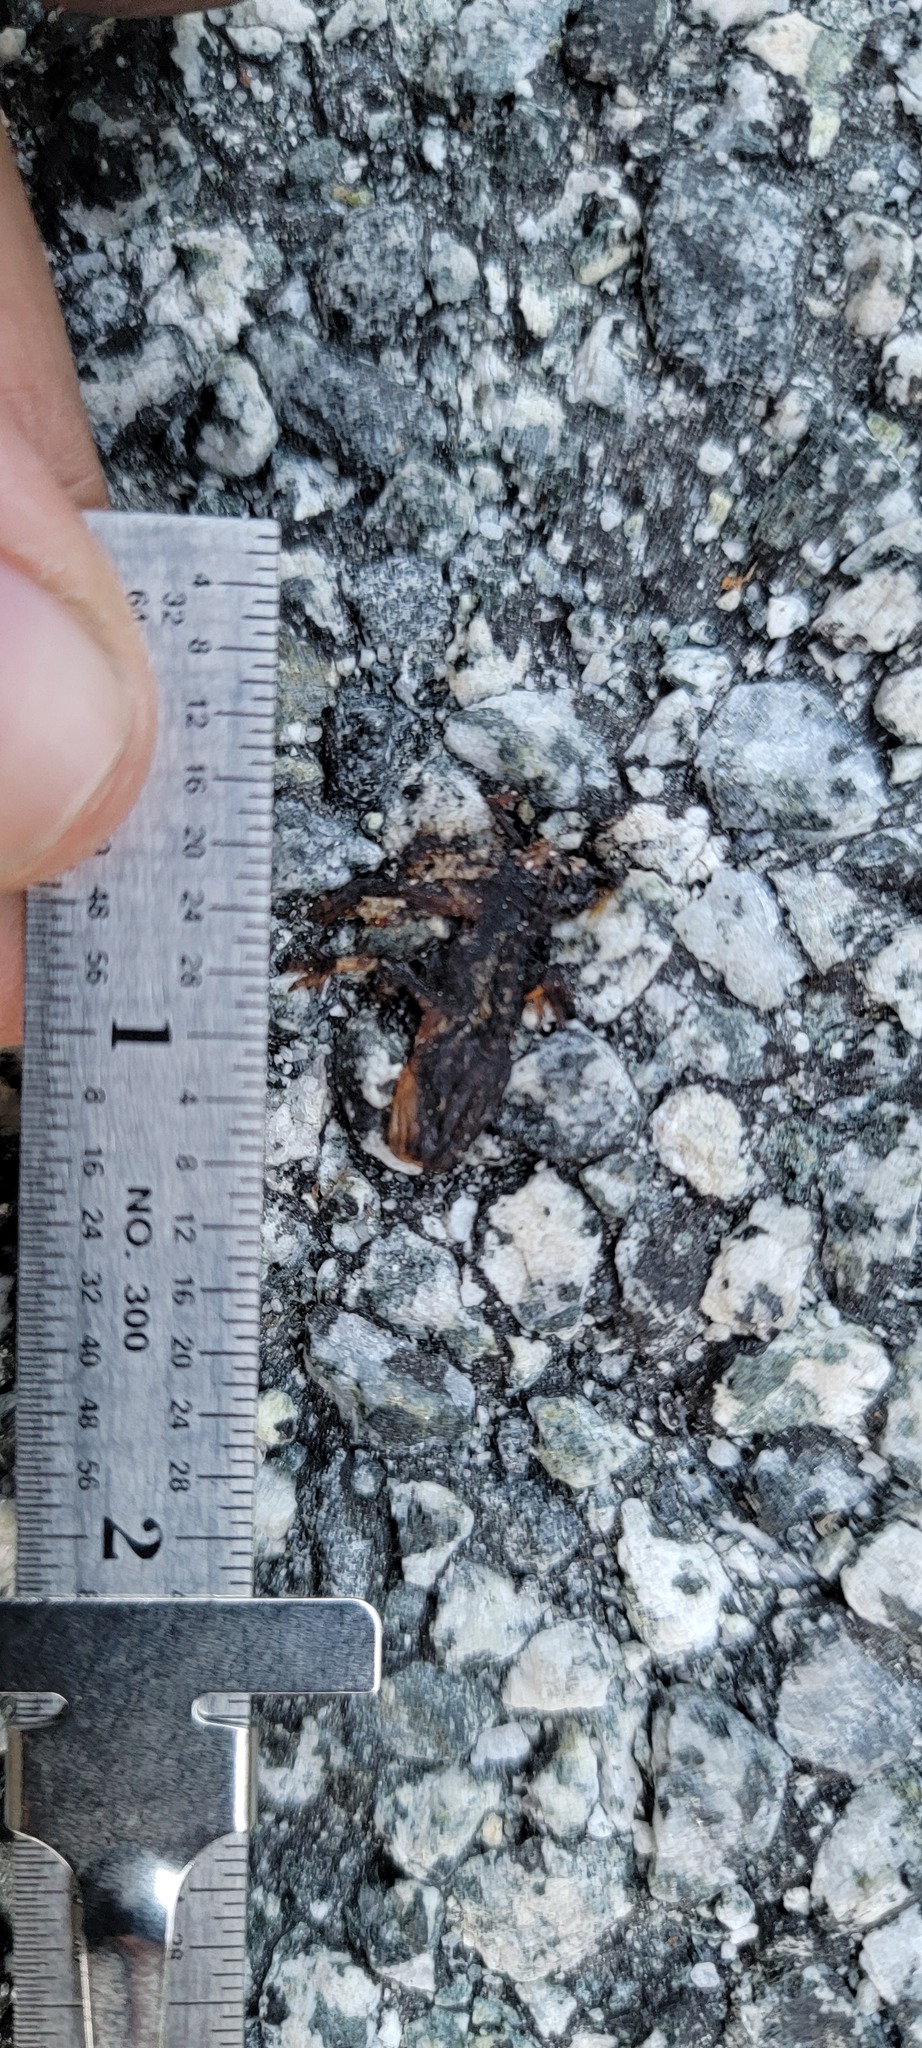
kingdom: Animalia
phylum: Chordata
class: Amphibia
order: Caudata
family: Salamandridae
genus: Taricha
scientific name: Taricha
